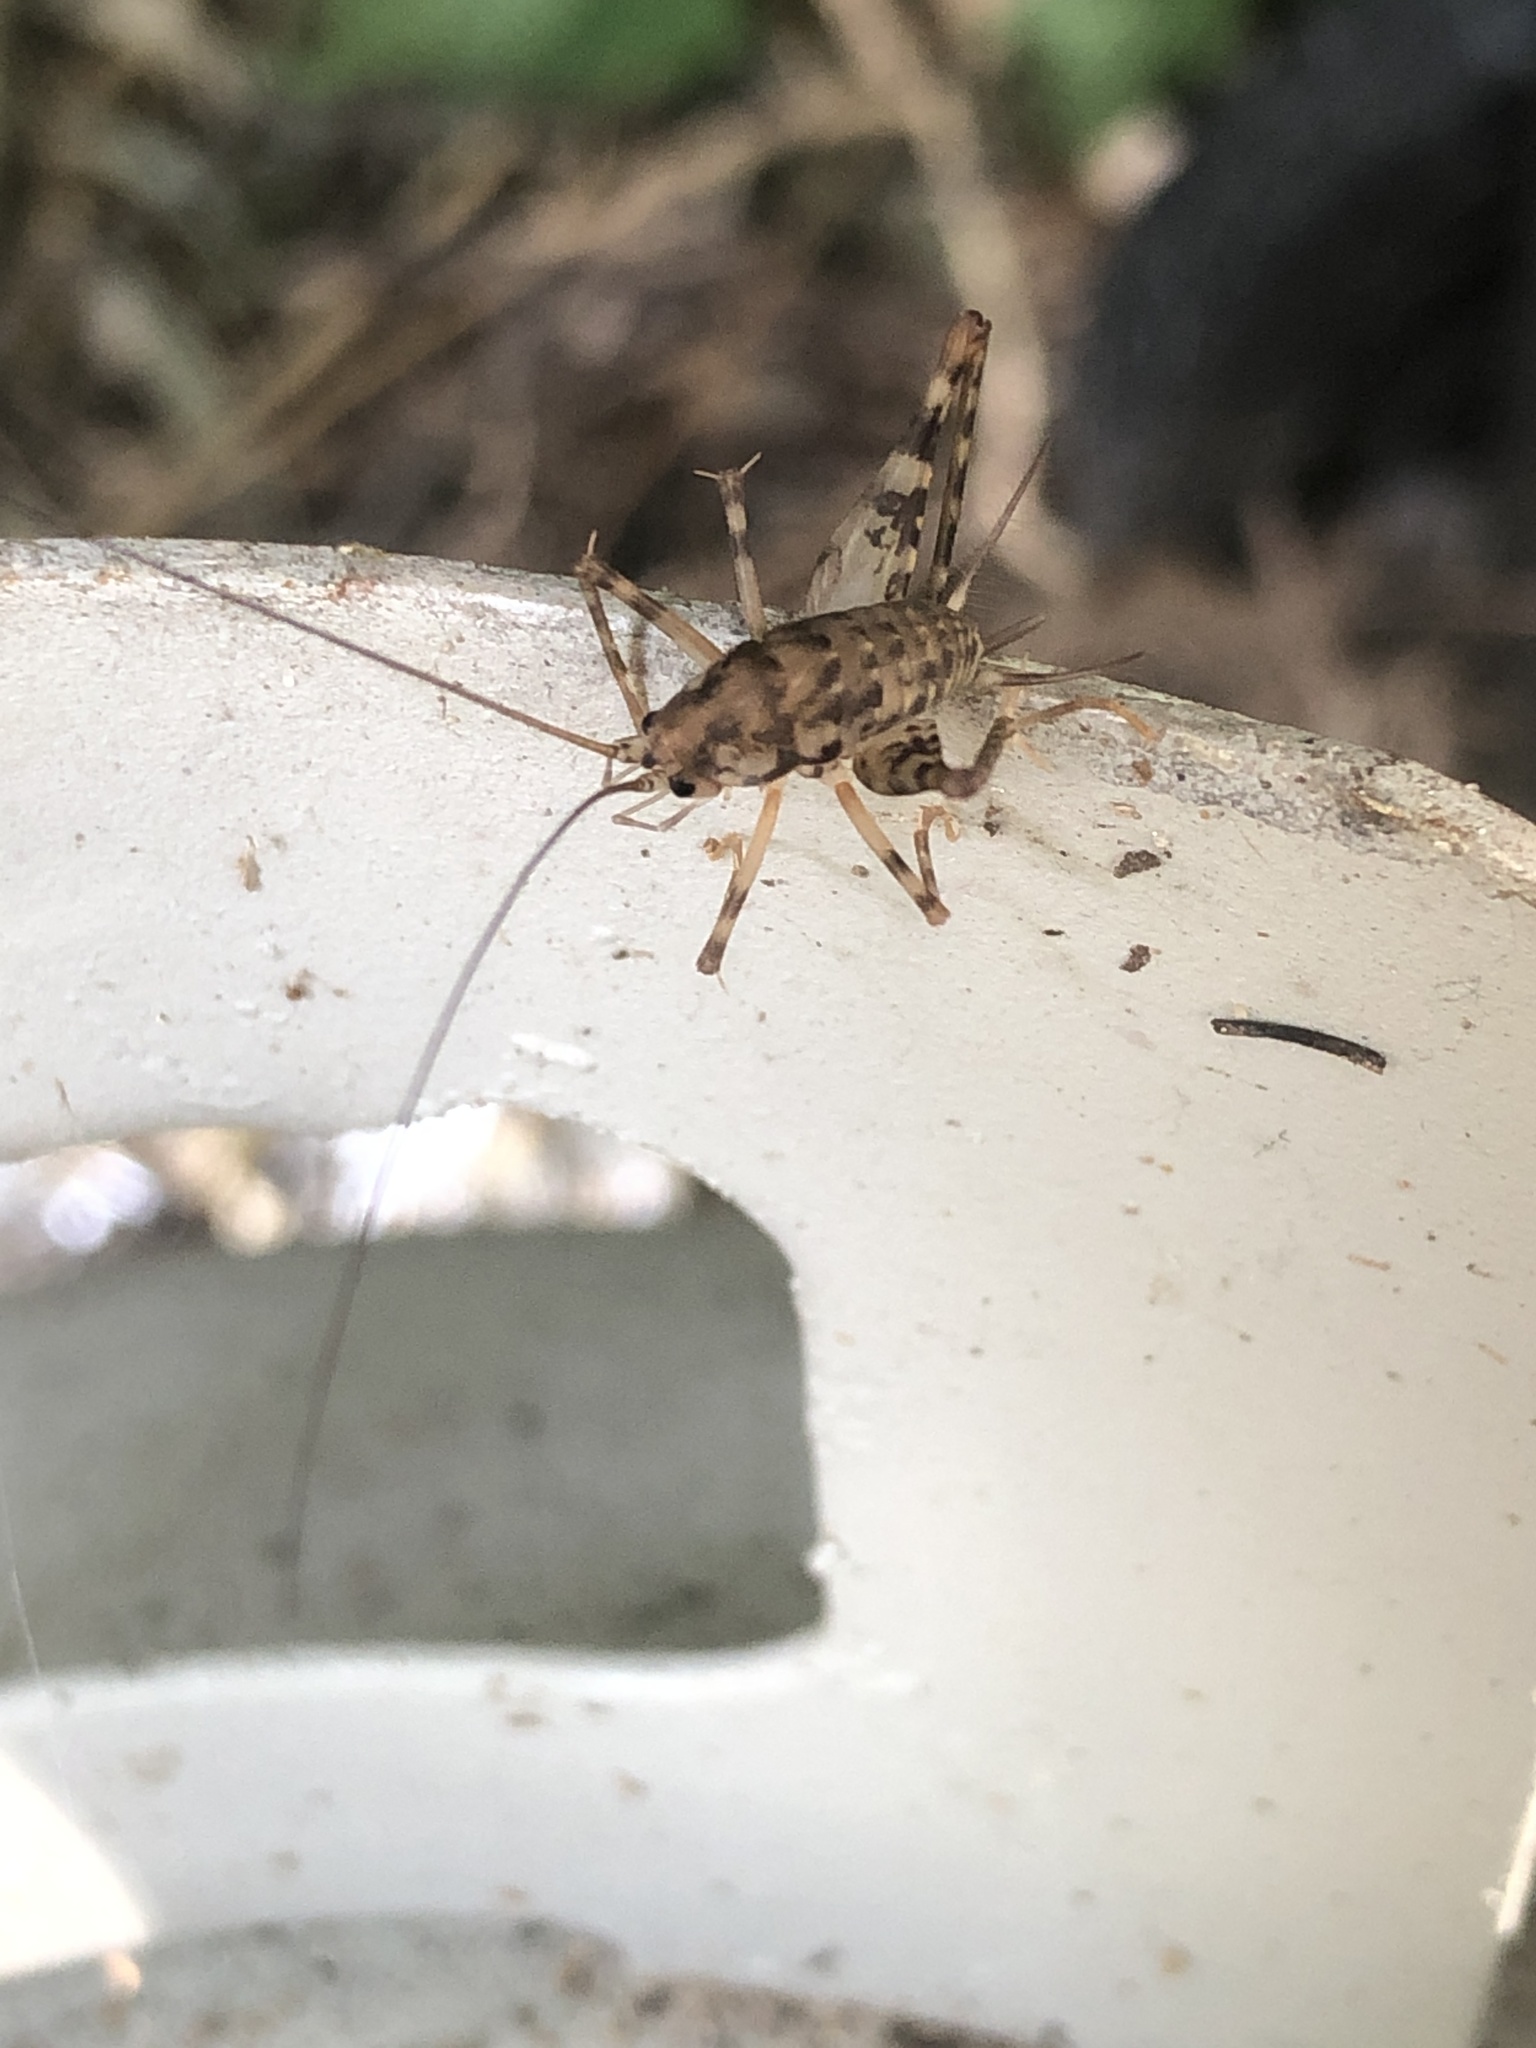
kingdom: Animalia
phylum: Arthropoda
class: Insecta
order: Orthoptera
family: Rhaphidophoridae
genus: Tachycines
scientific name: Tachycines asynamorus
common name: Greenhouse camel cricket
